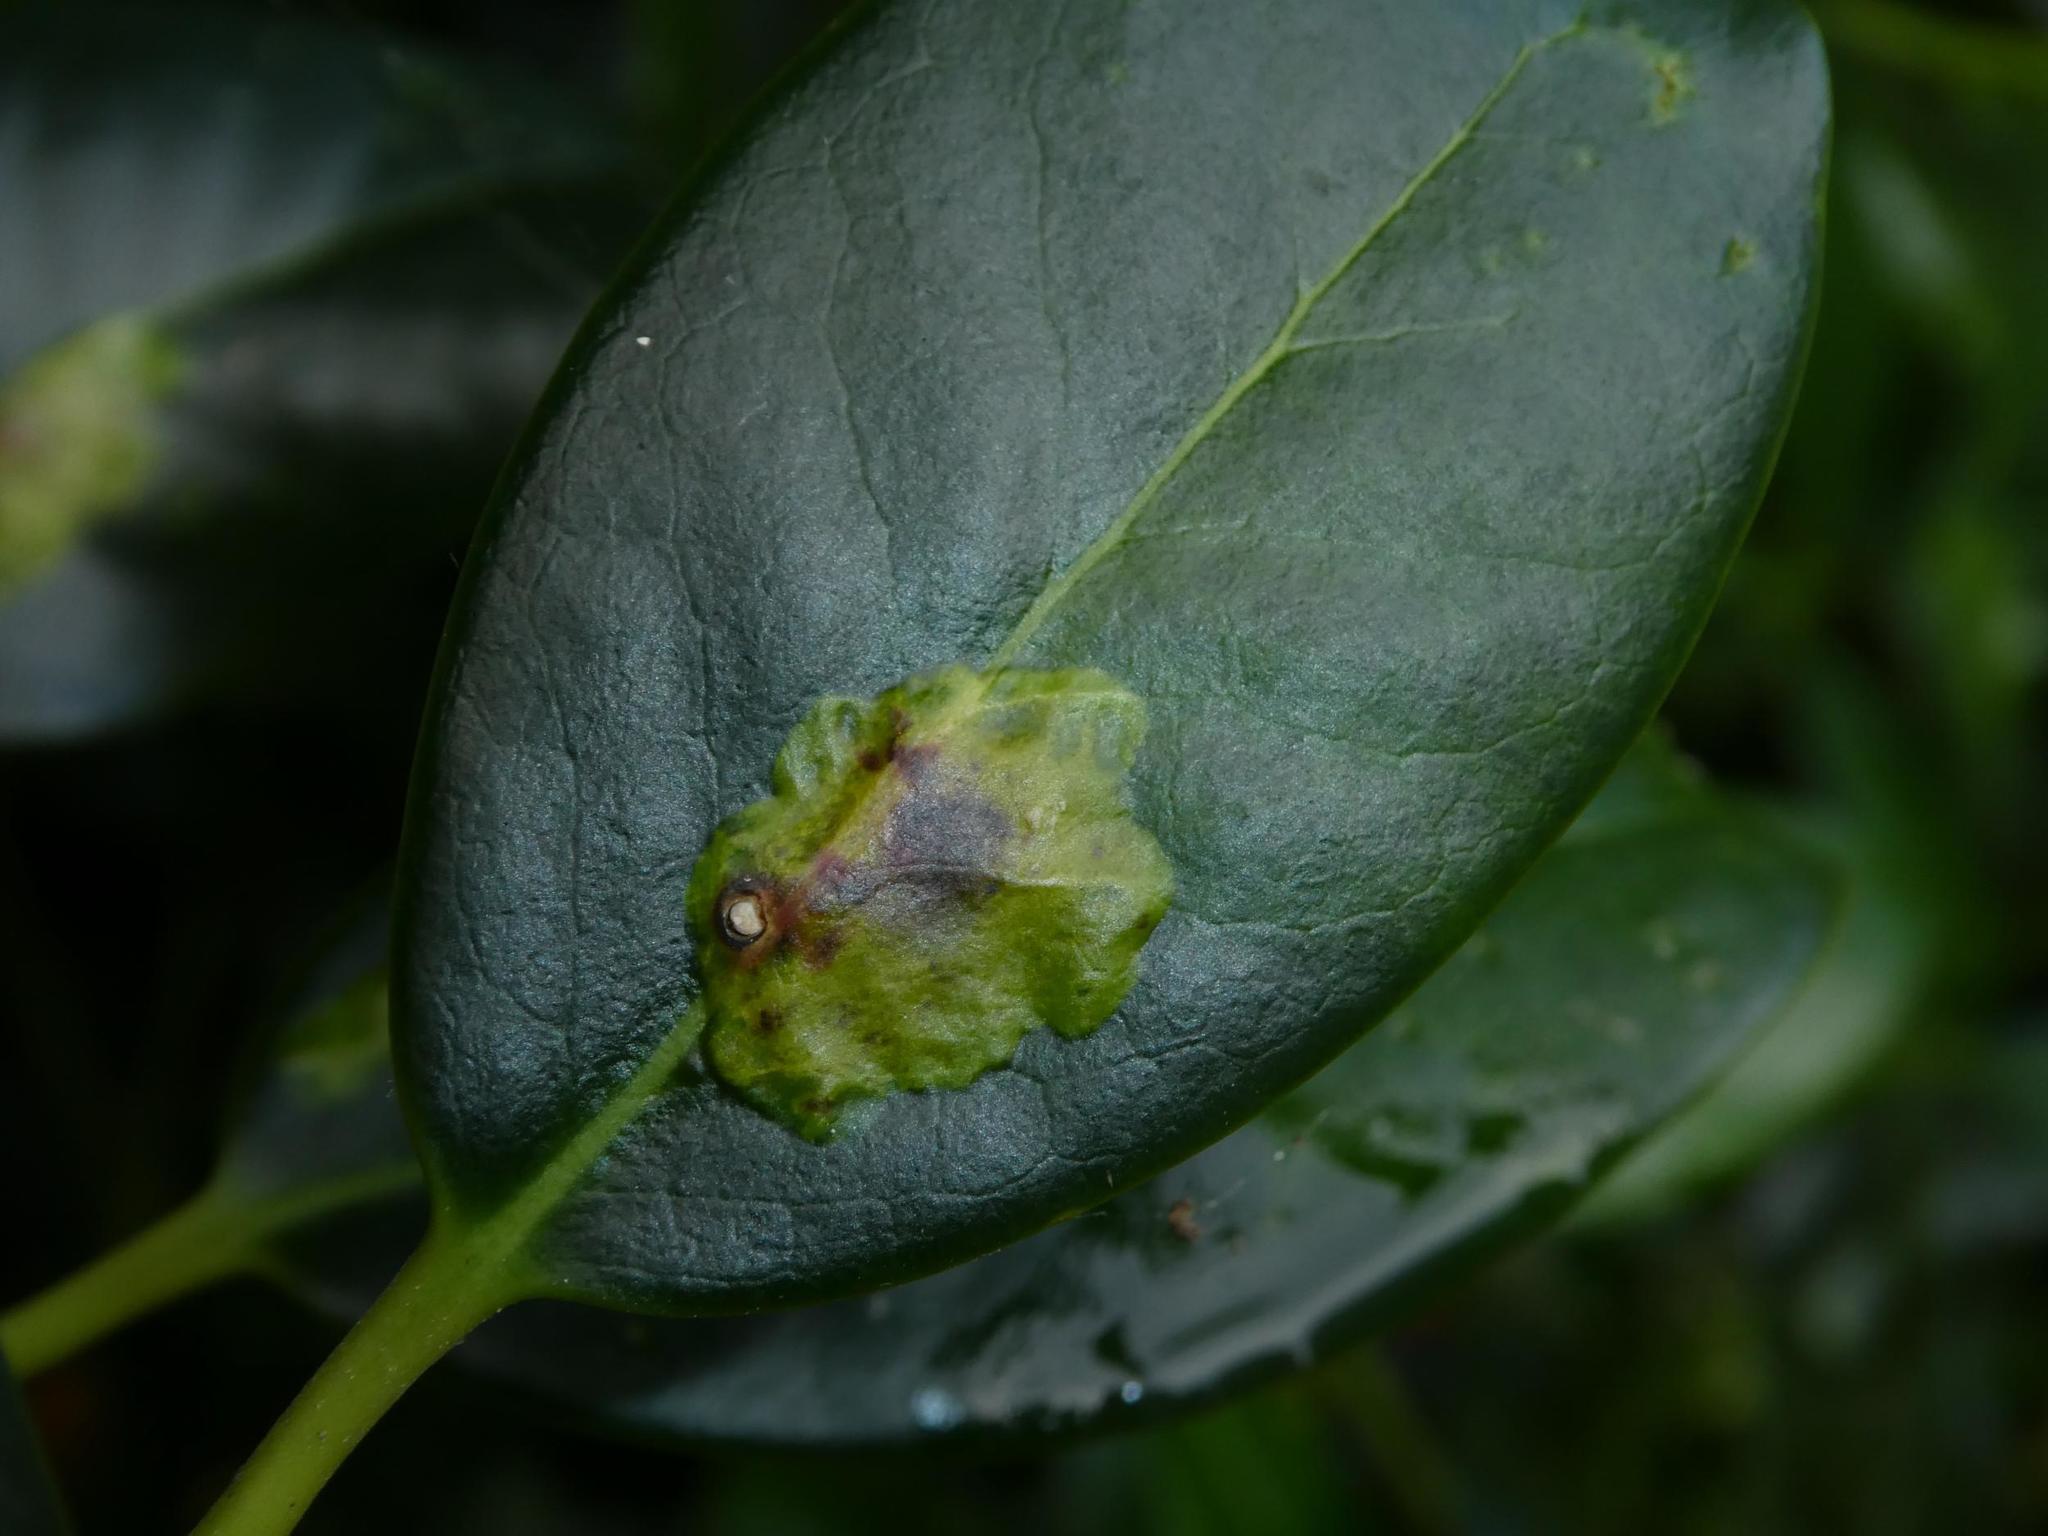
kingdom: Animalia
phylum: Arthropoda
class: Insecta
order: Diptera
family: Agromyzidae
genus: Phytomyza
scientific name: Phytomyza ilicis
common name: Holly leafminer
